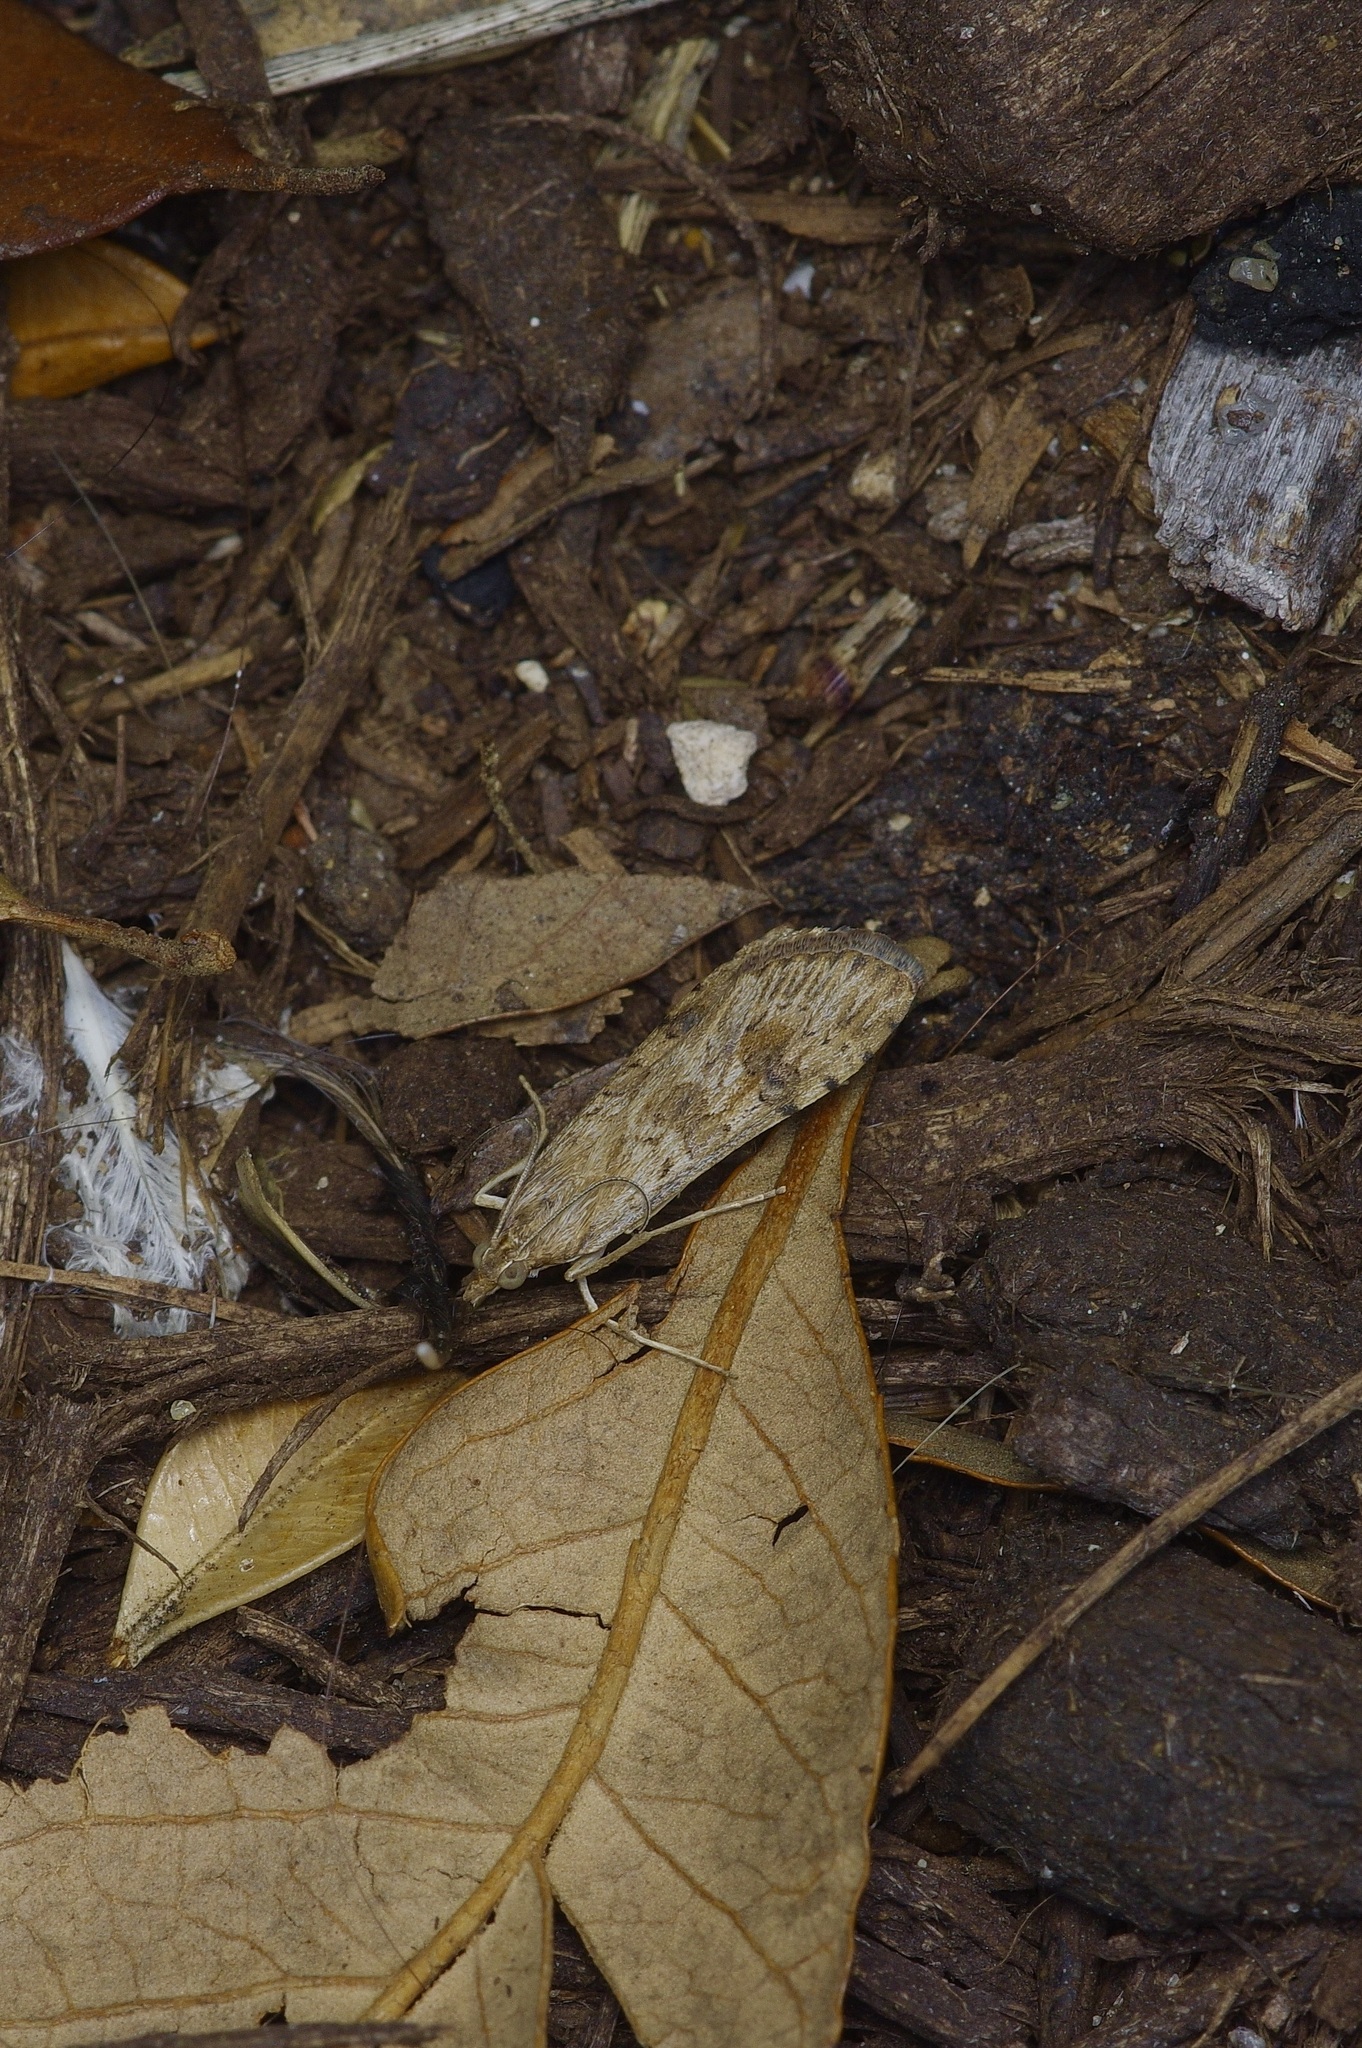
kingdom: Animalia
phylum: Arthropoda
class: Insecta
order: Lepidoptera
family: Crambidae
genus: Nomophila
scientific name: Nomophila nearctica
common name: American rush veneer
